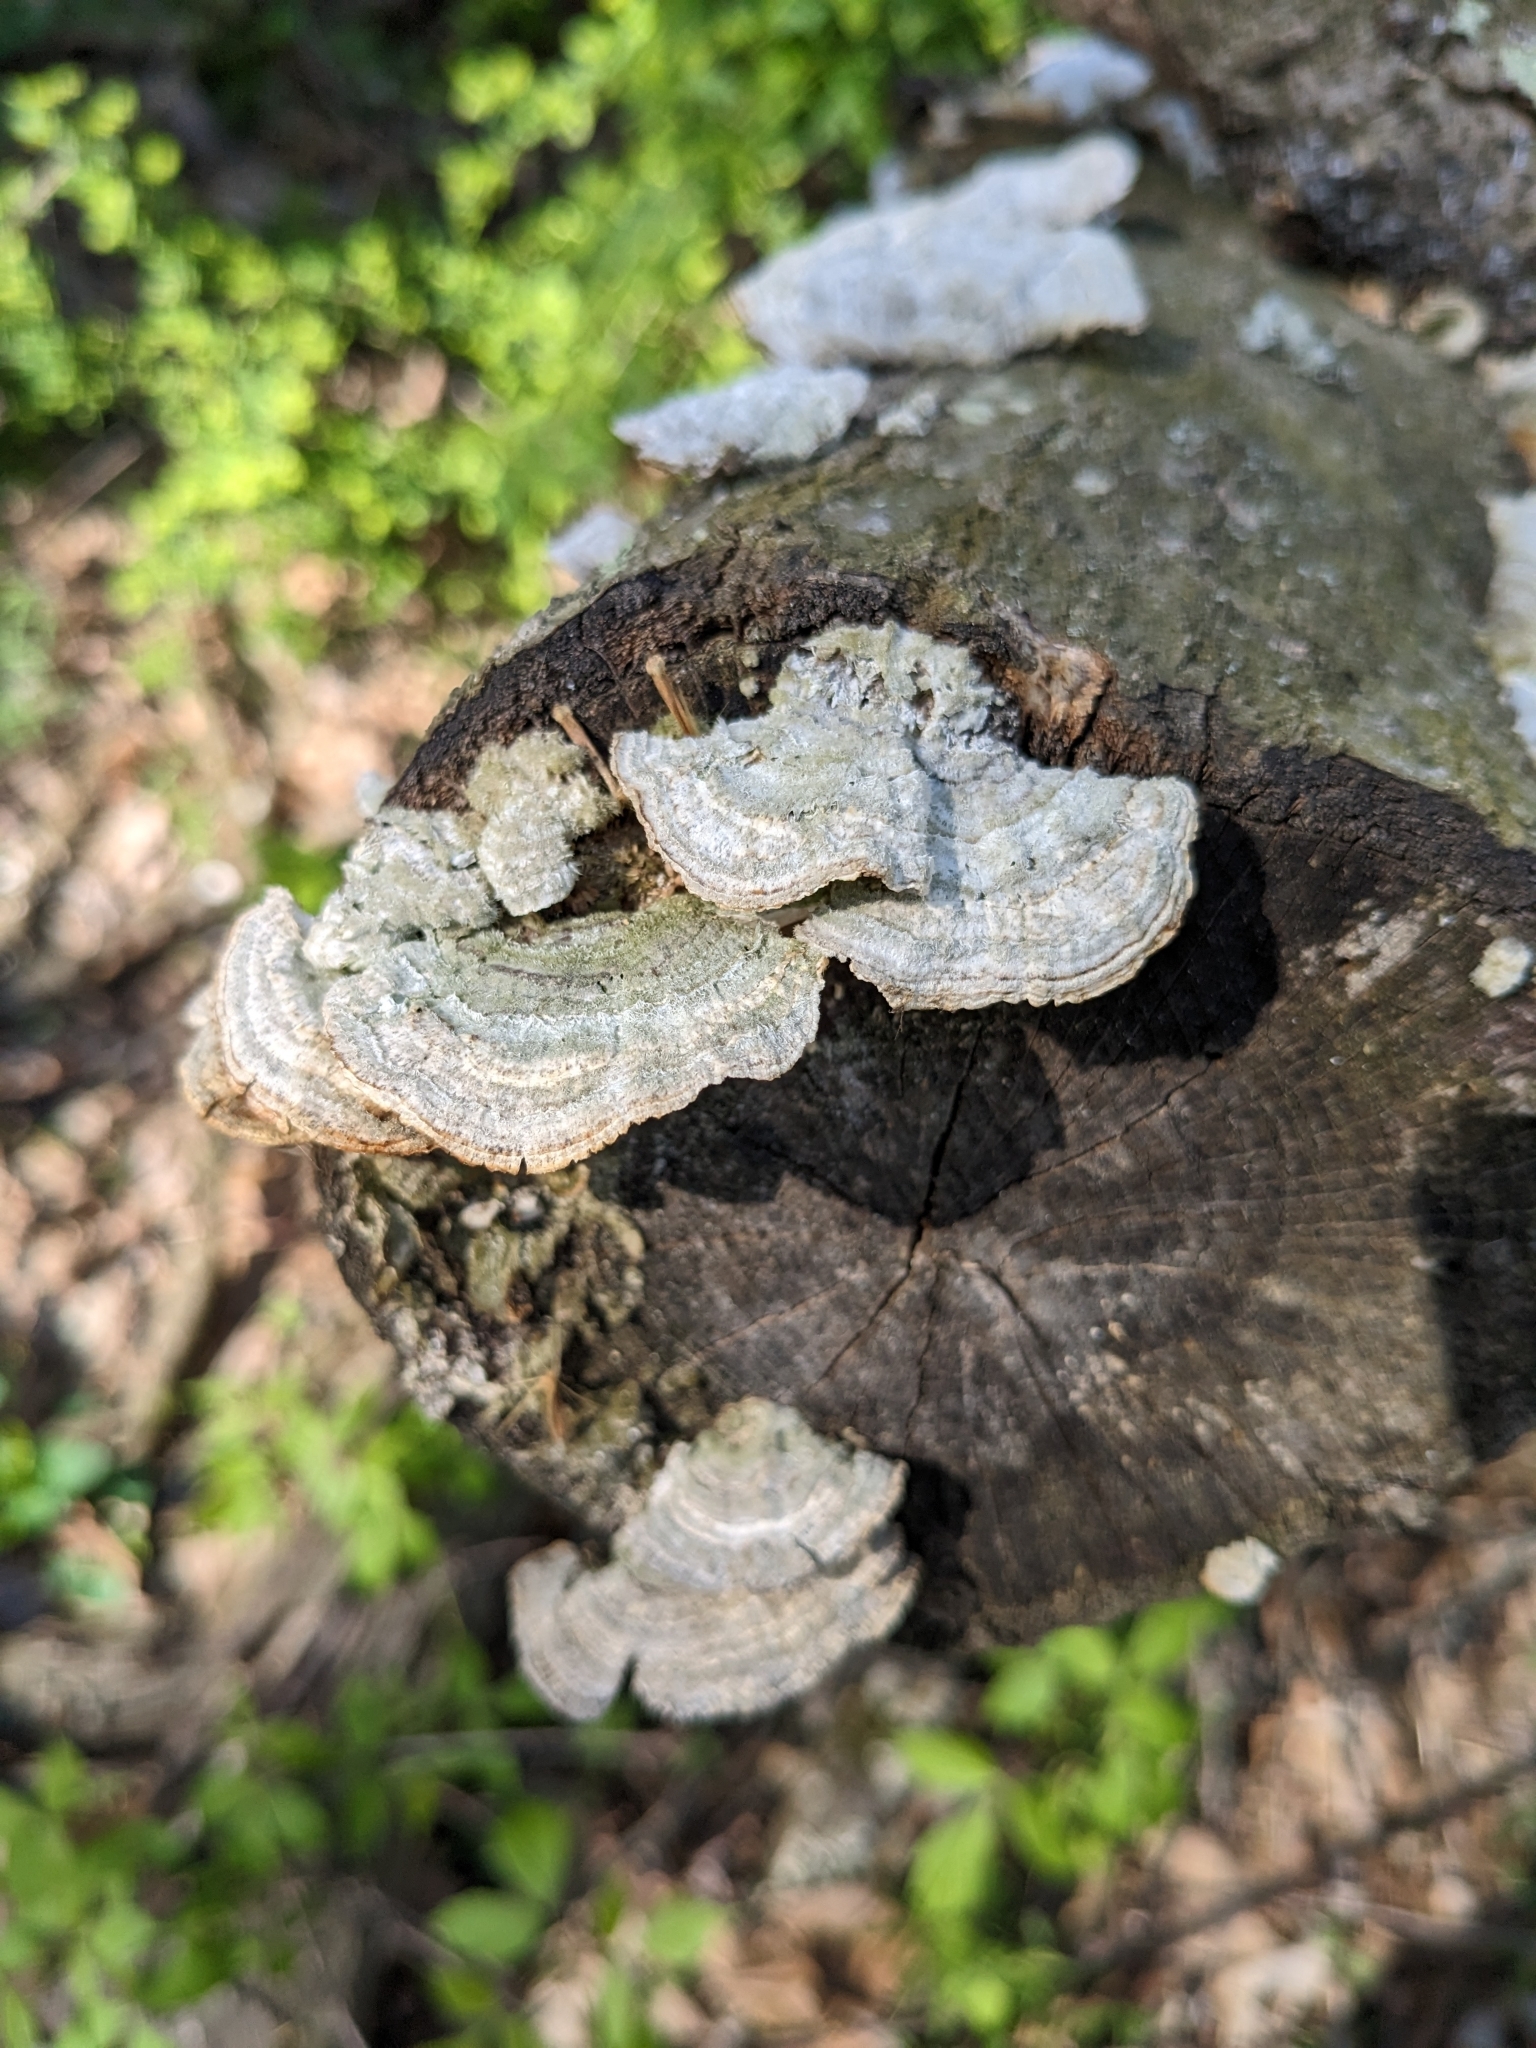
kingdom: Fungi
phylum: Basidiomycota
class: Agaricomycetes
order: Polyporales
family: Polyporaceae
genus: Lenzites
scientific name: Lenzites betulinus
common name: Birch mazegill
